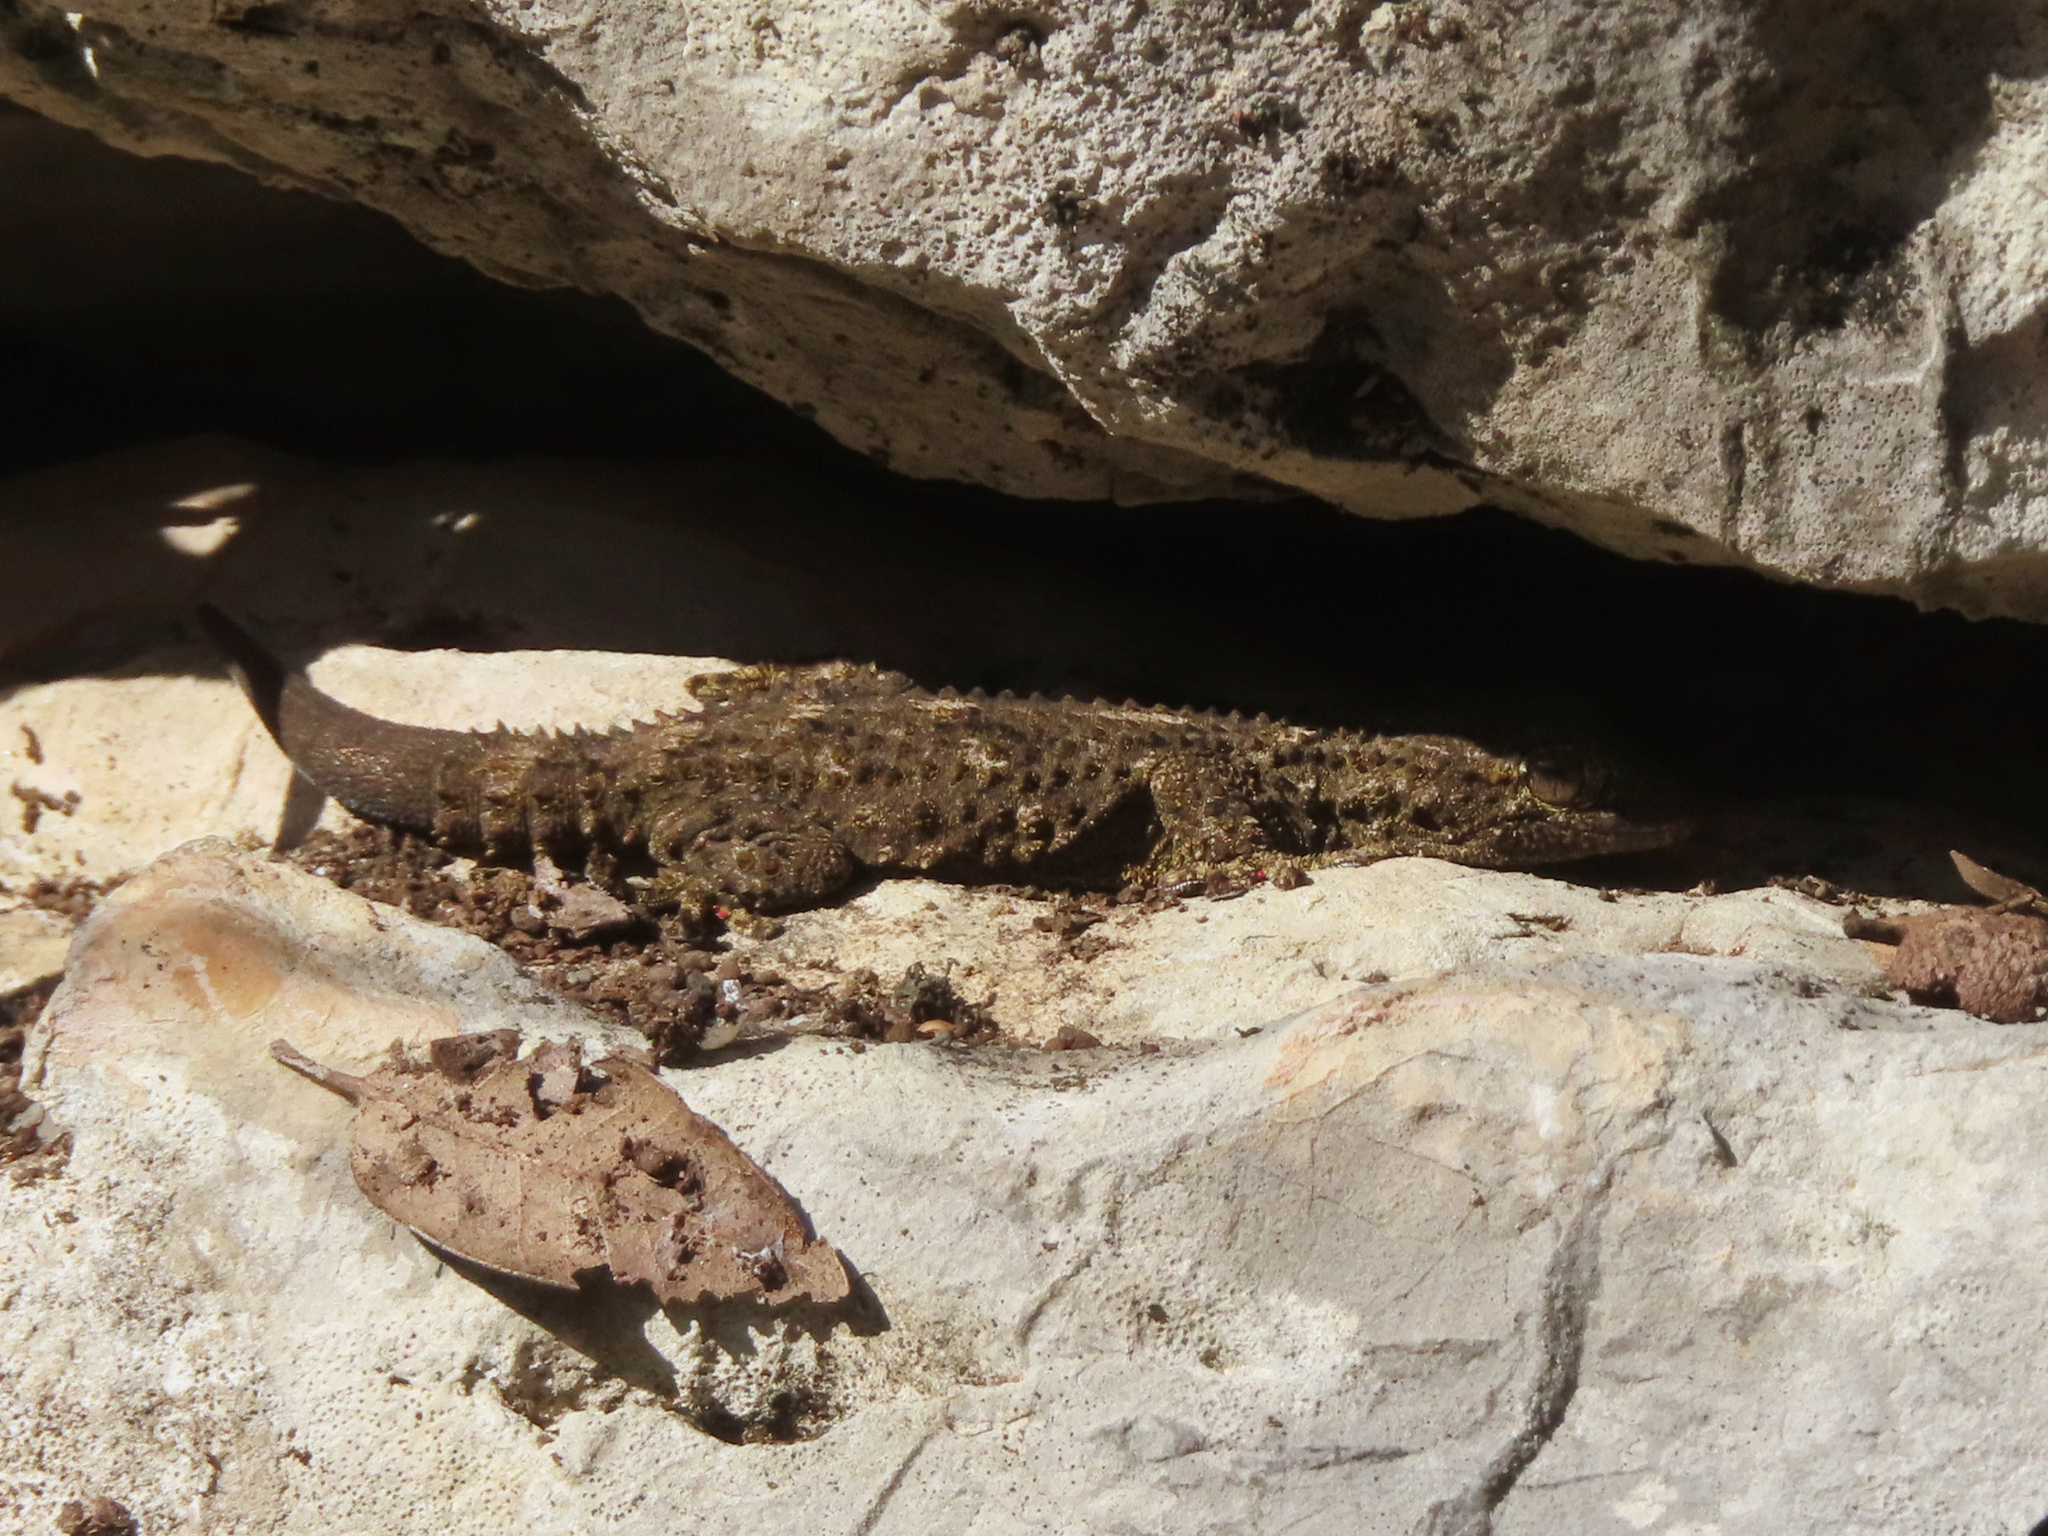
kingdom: Animalia
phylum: Chordata
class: Squamata
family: Phyllodactylidae
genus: Tarentola
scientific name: Tarentola mauritanica
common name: Moorish gecko
